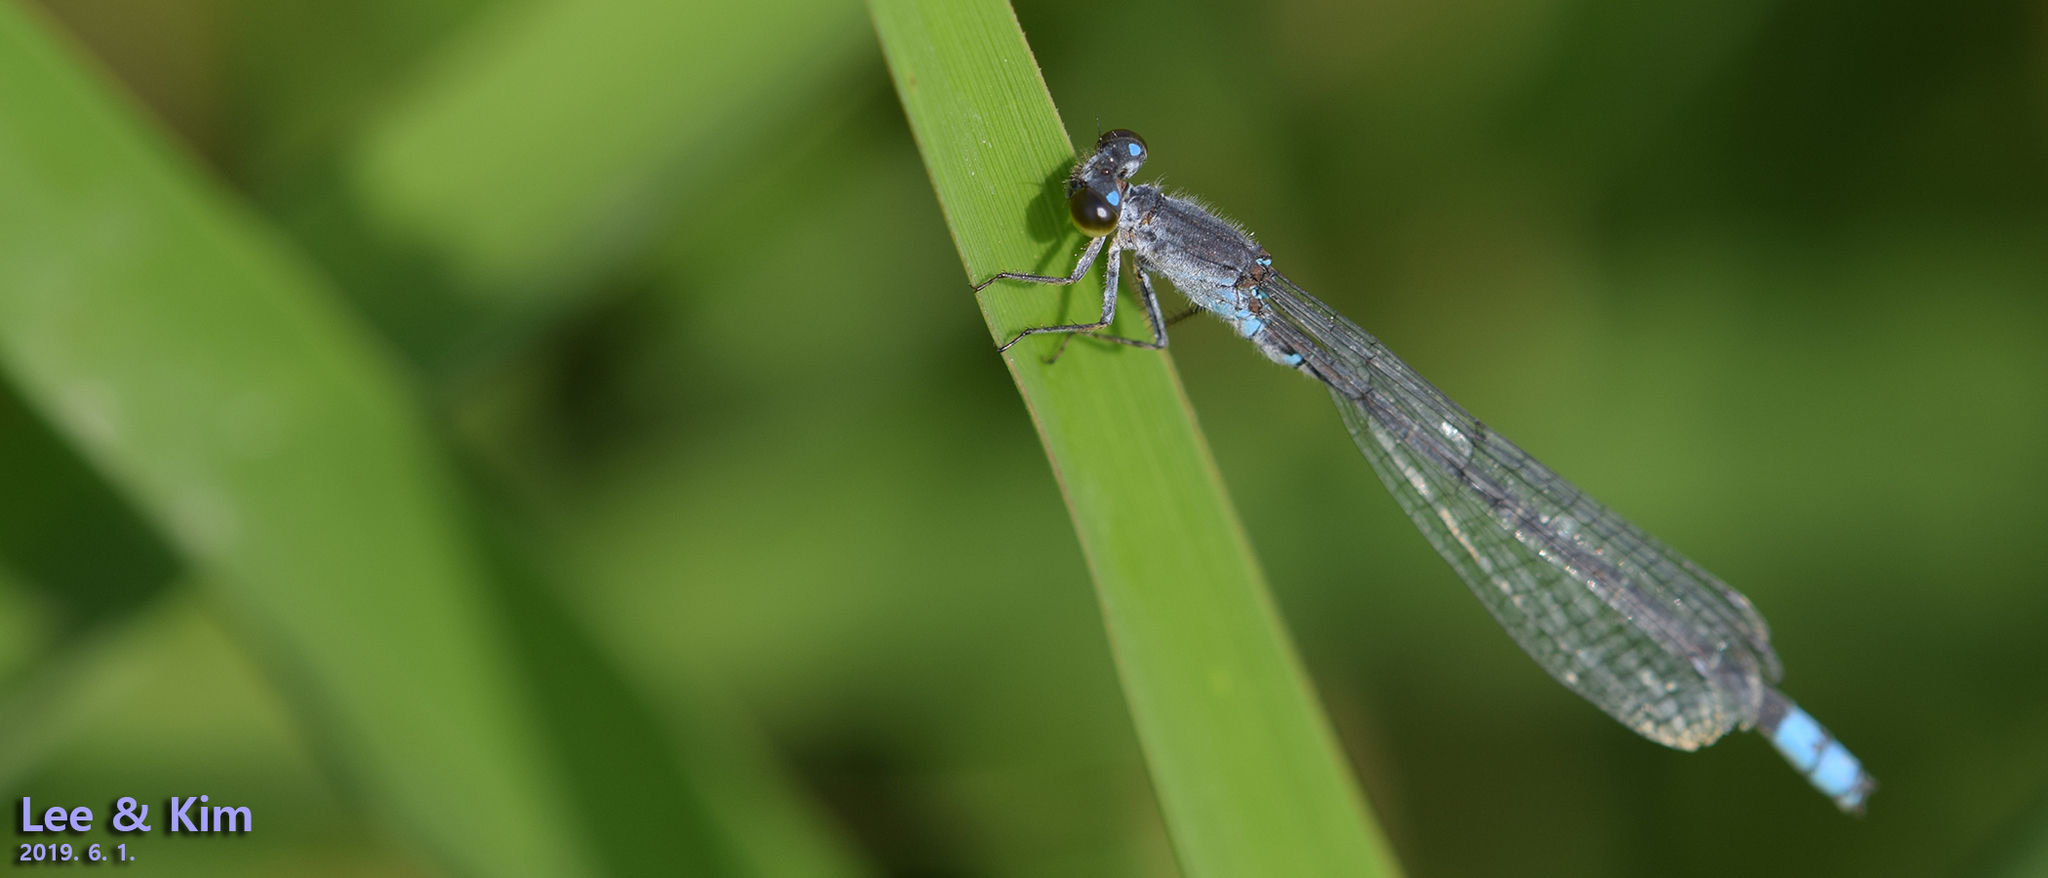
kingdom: Animalia
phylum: Arthropoda
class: Insecta
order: Odonata
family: Coenagrionidae
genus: Paracercion
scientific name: Paracercion calamorum
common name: Dusky lilysquatter
